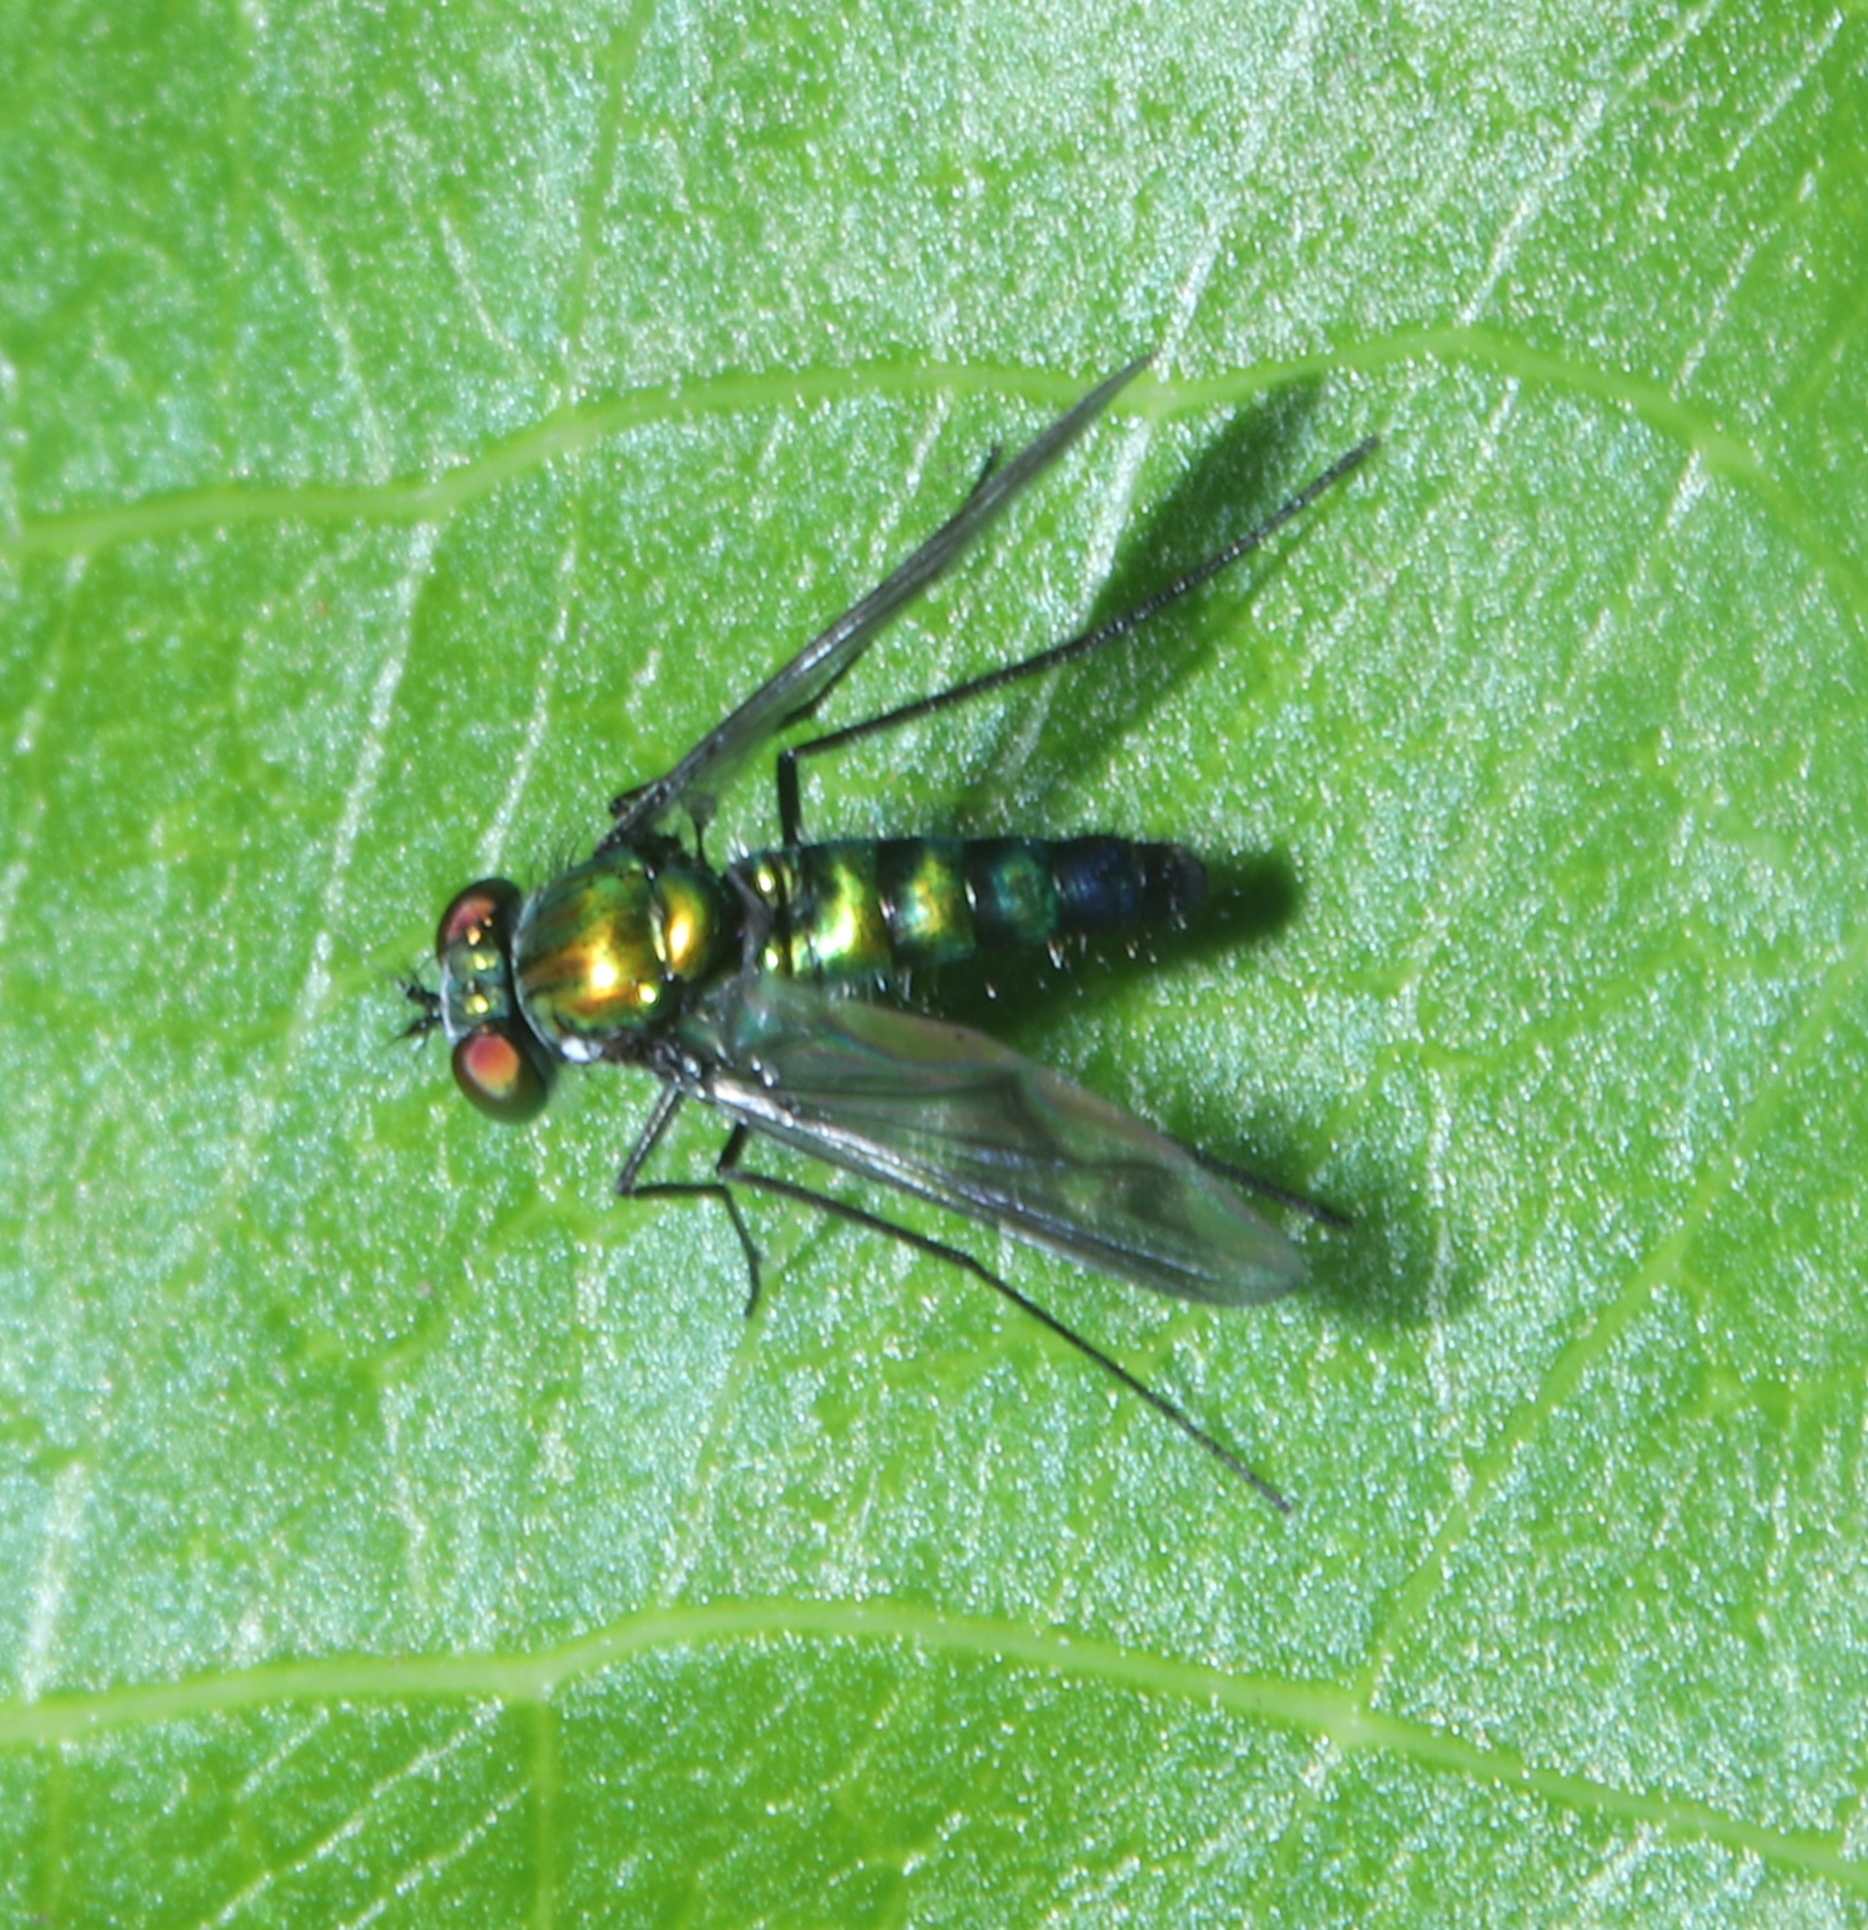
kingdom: Animalia
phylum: Arthropoda
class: Insecta
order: Diptera
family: Dolichopodidae
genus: Condylostylus
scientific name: Condylostylus patibulatus
